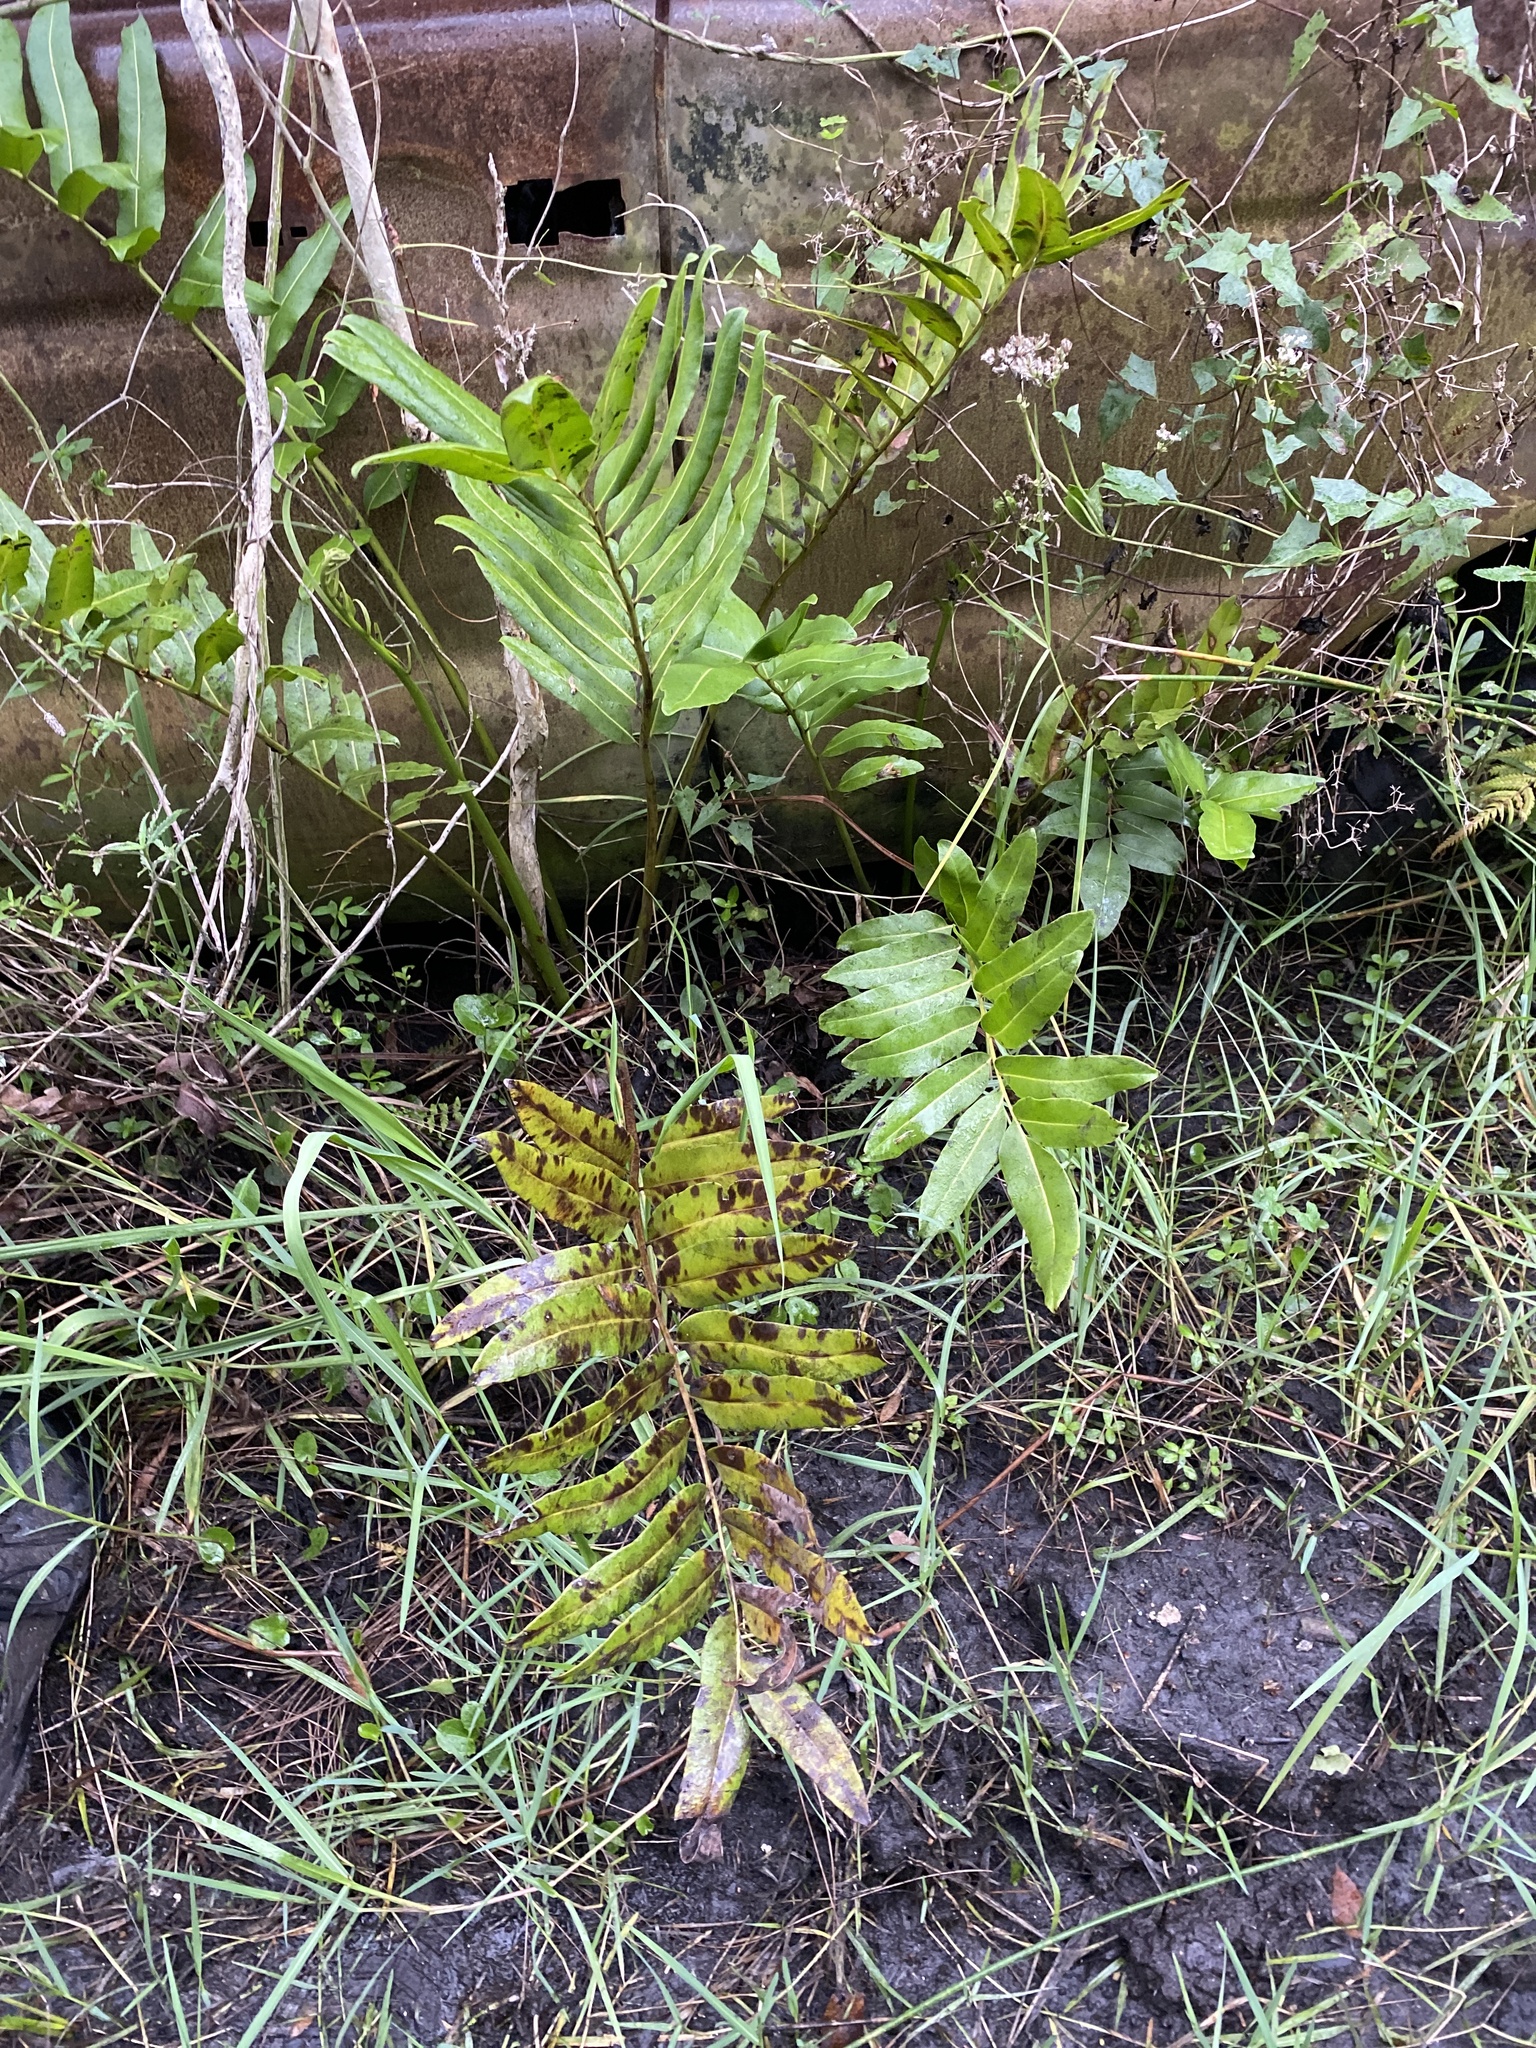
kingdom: Plantae
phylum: Tracheophyta
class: Polypodiopsida
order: Polypodiales
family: Pteridaceae
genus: Acrostichum
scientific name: Acrostichum danaeifolium
